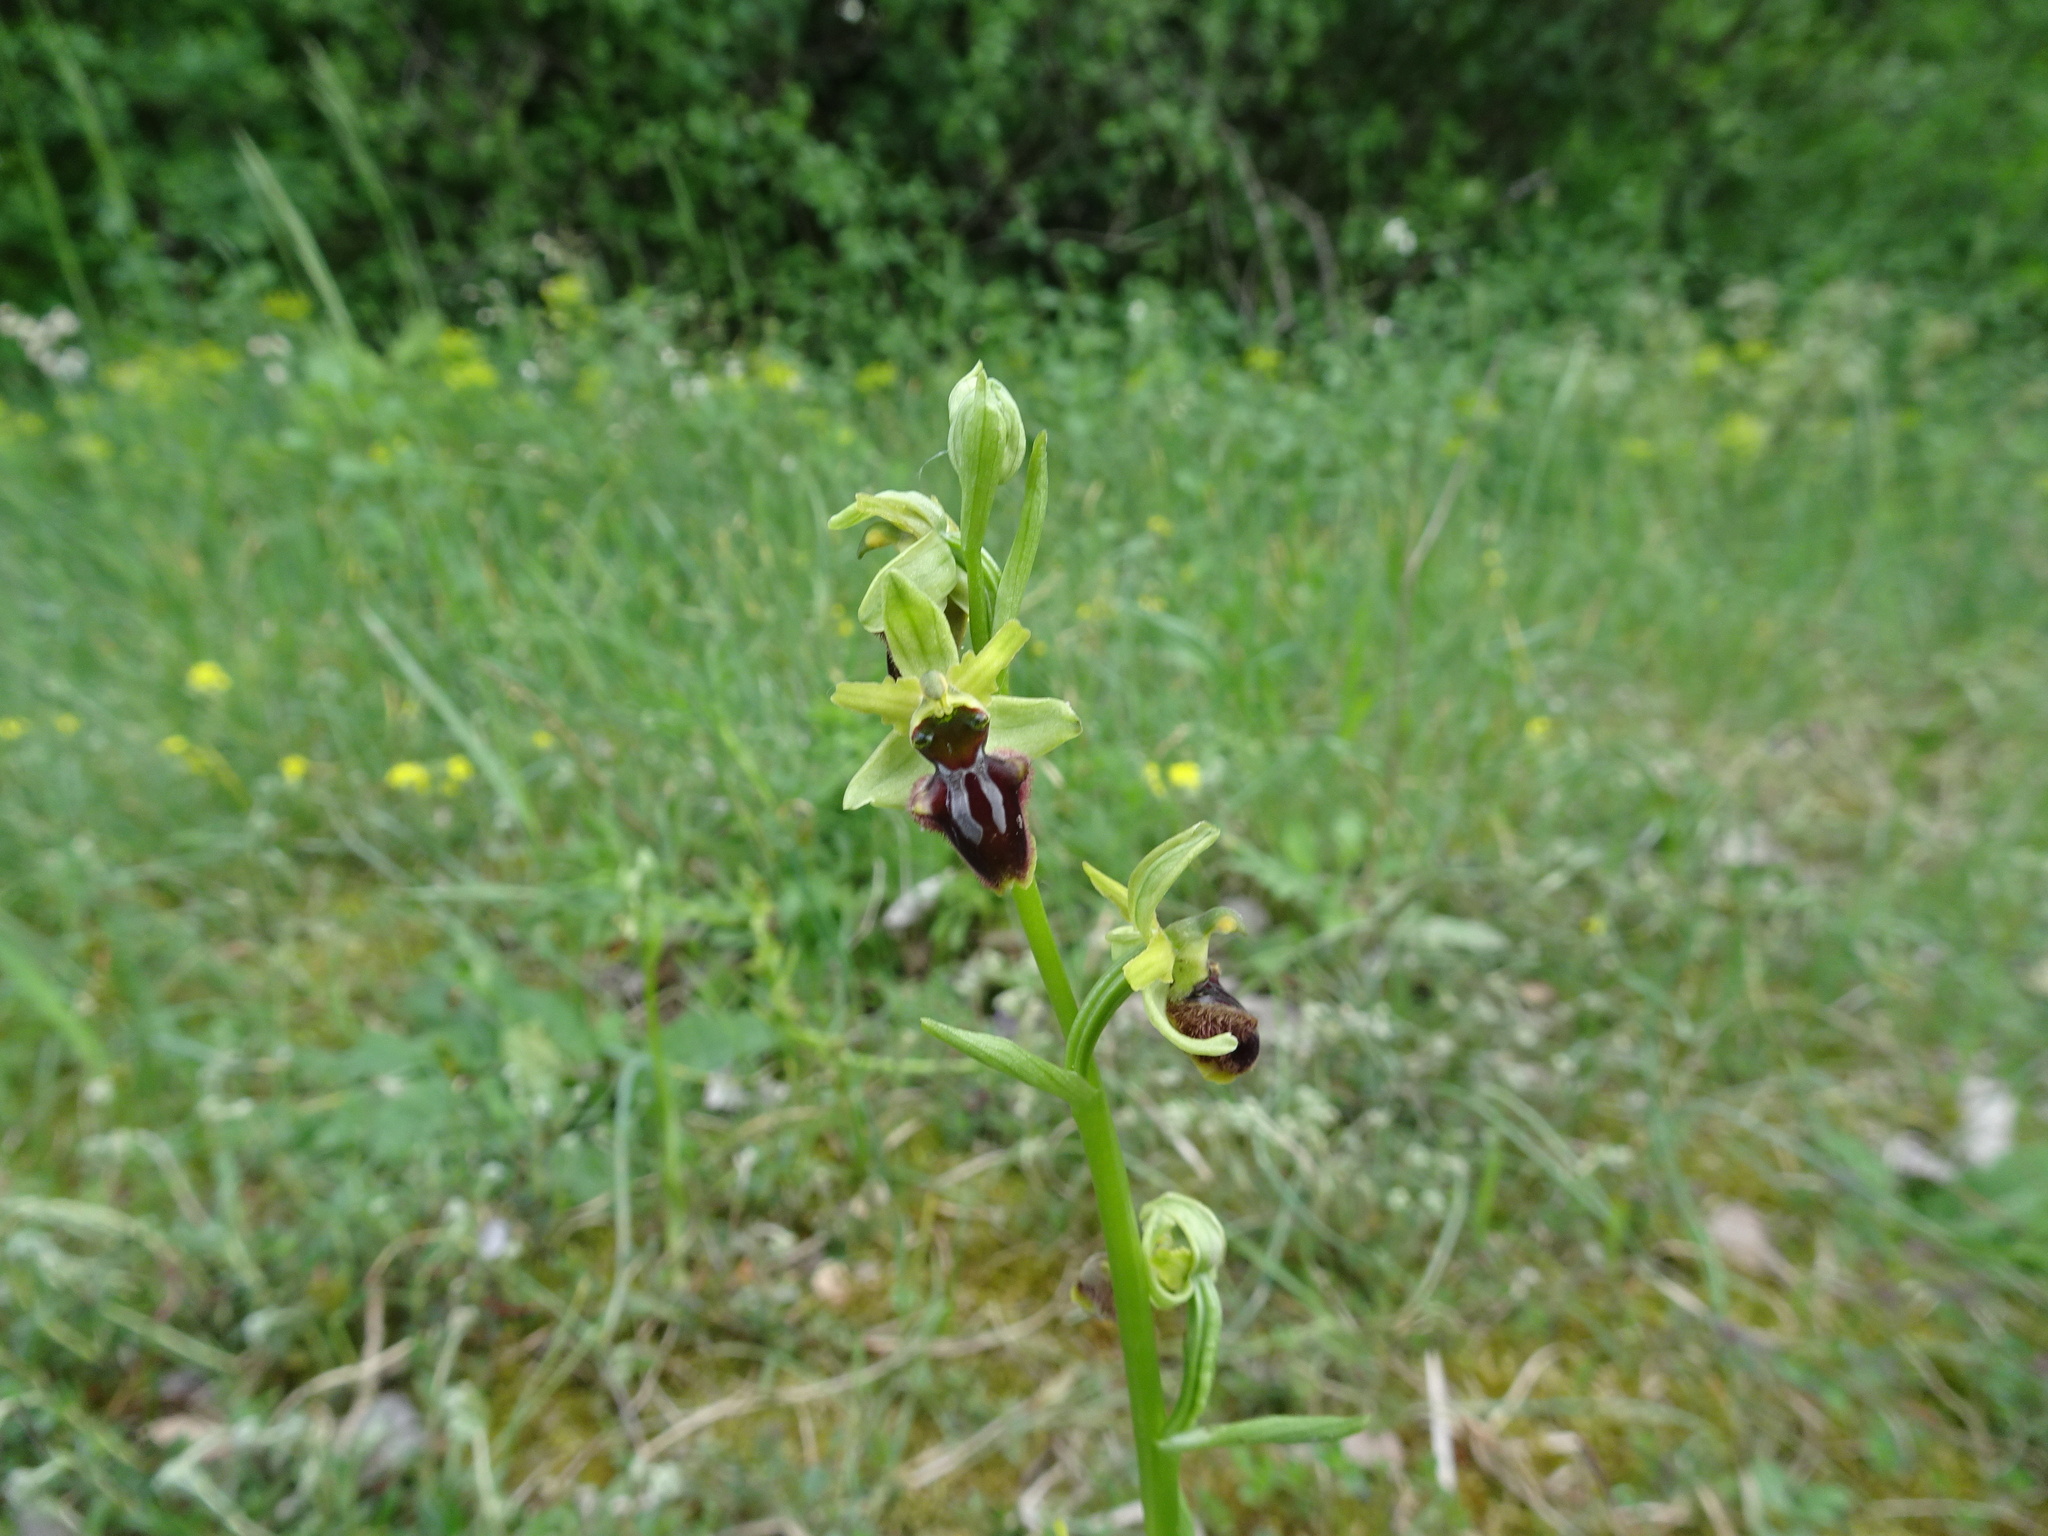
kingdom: Plantae
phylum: Tracheophyta
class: Liliopsida
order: Asparagales
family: Orchidaceae
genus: Ophrys
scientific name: Ophrys sphegodes
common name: Early spider-orchid
